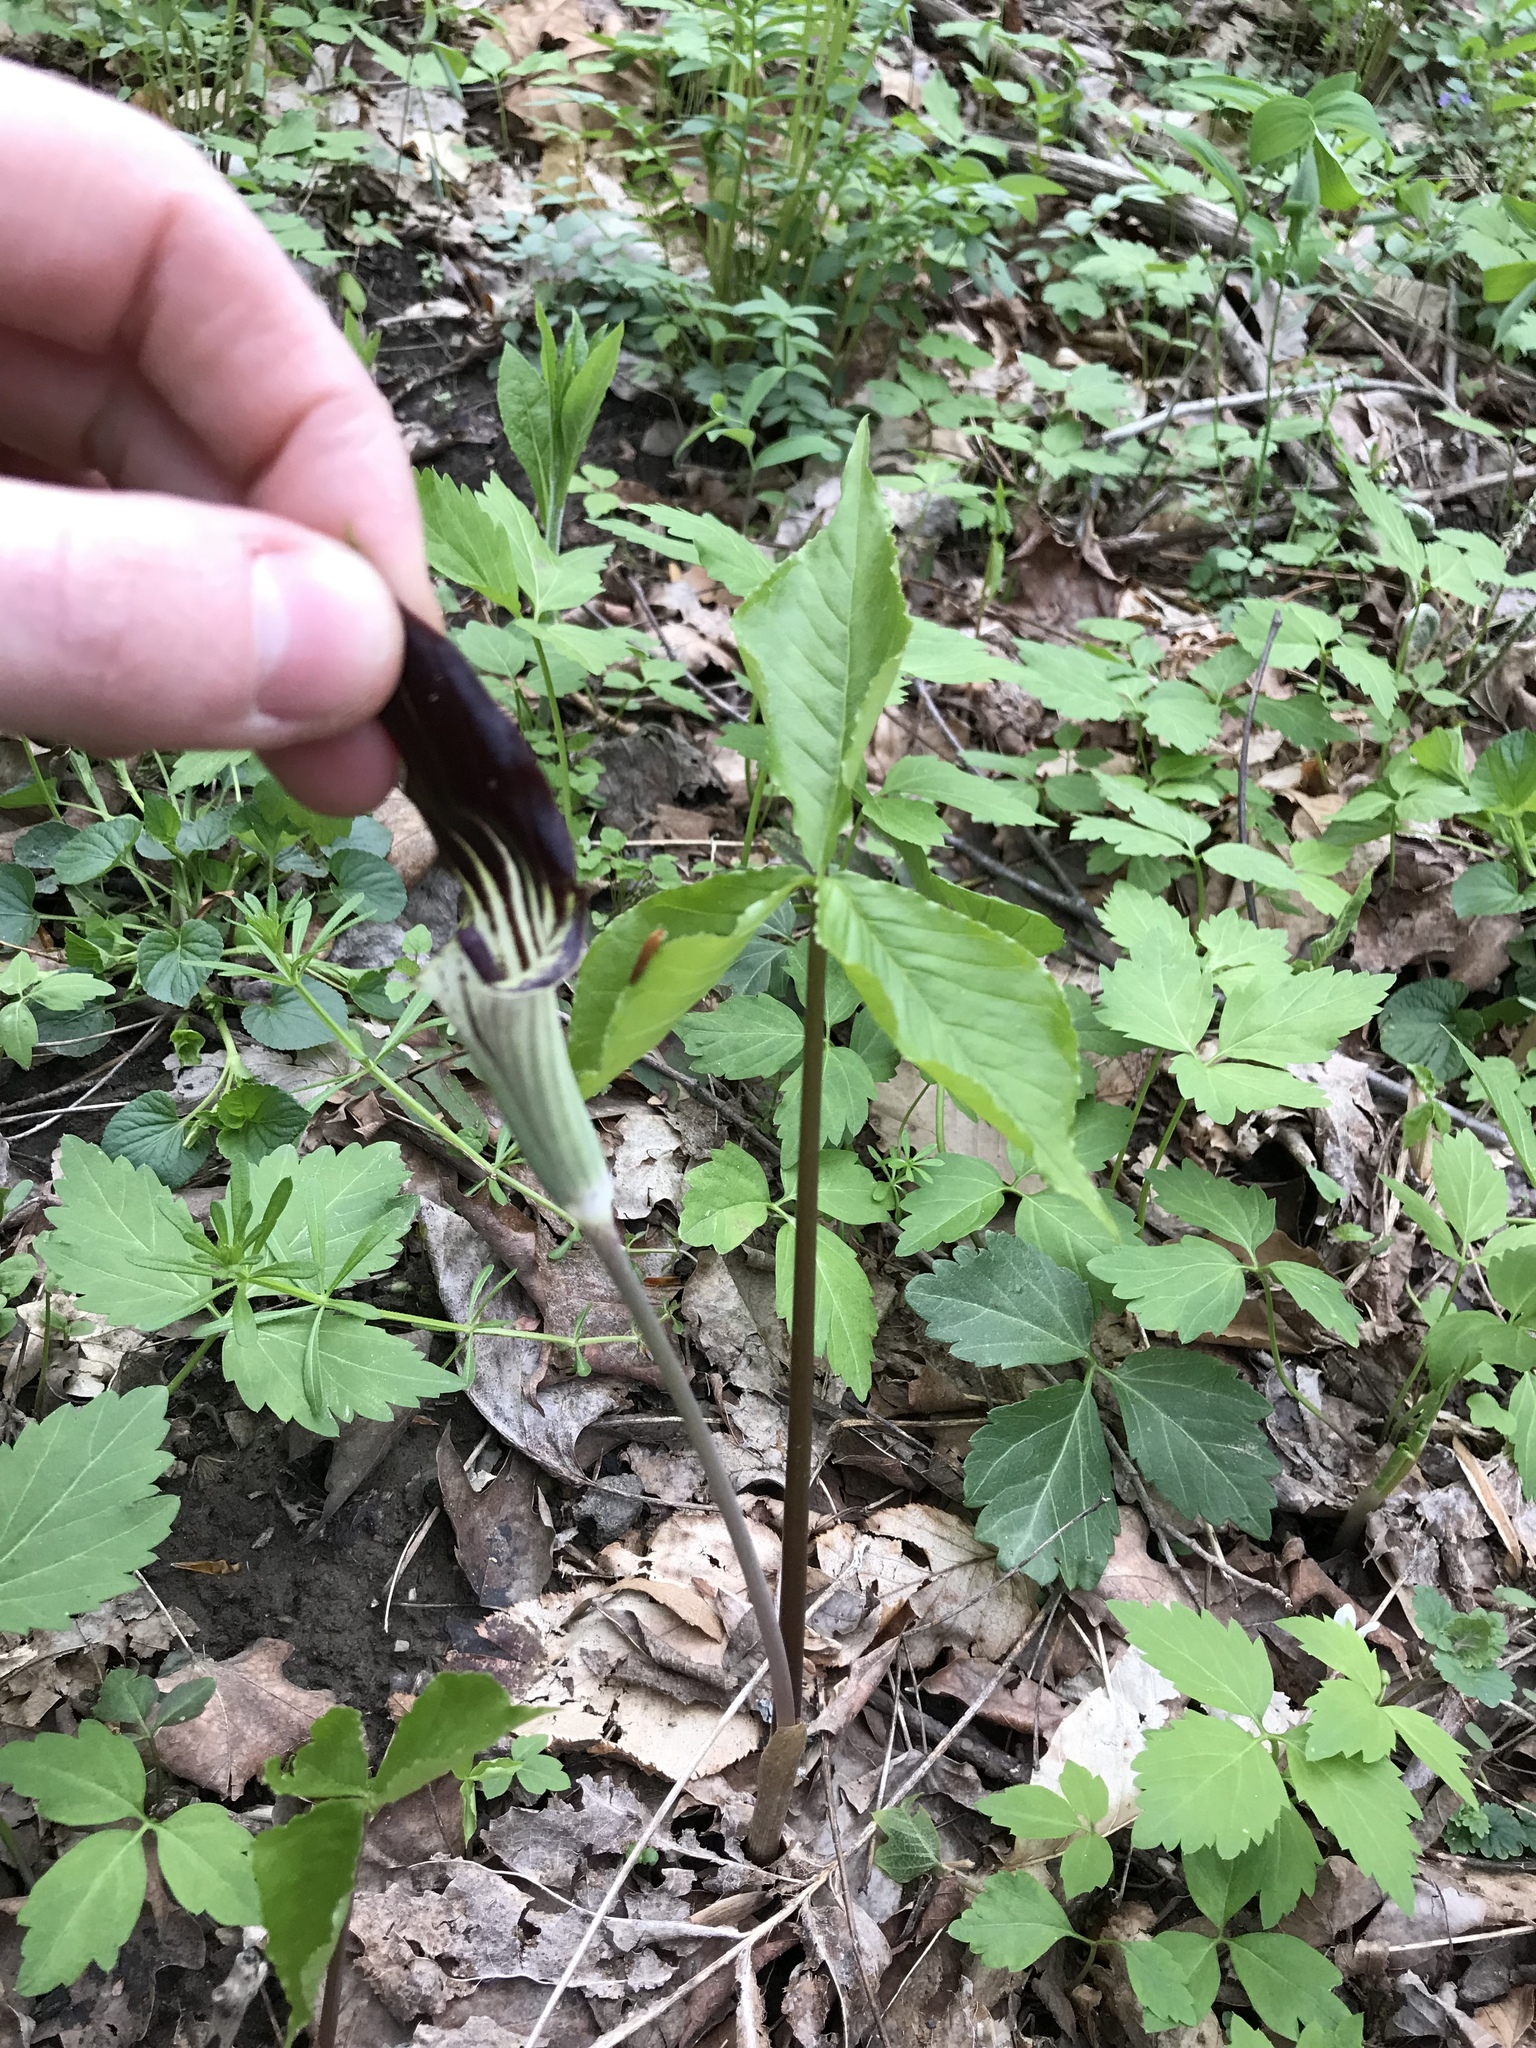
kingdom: Plantae
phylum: Tracheophyta
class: Liliopsida
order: Alismatales
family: Araceae
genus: Arisaema
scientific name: Arisaema triphyllum
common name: Jack-in-the-pulpit
